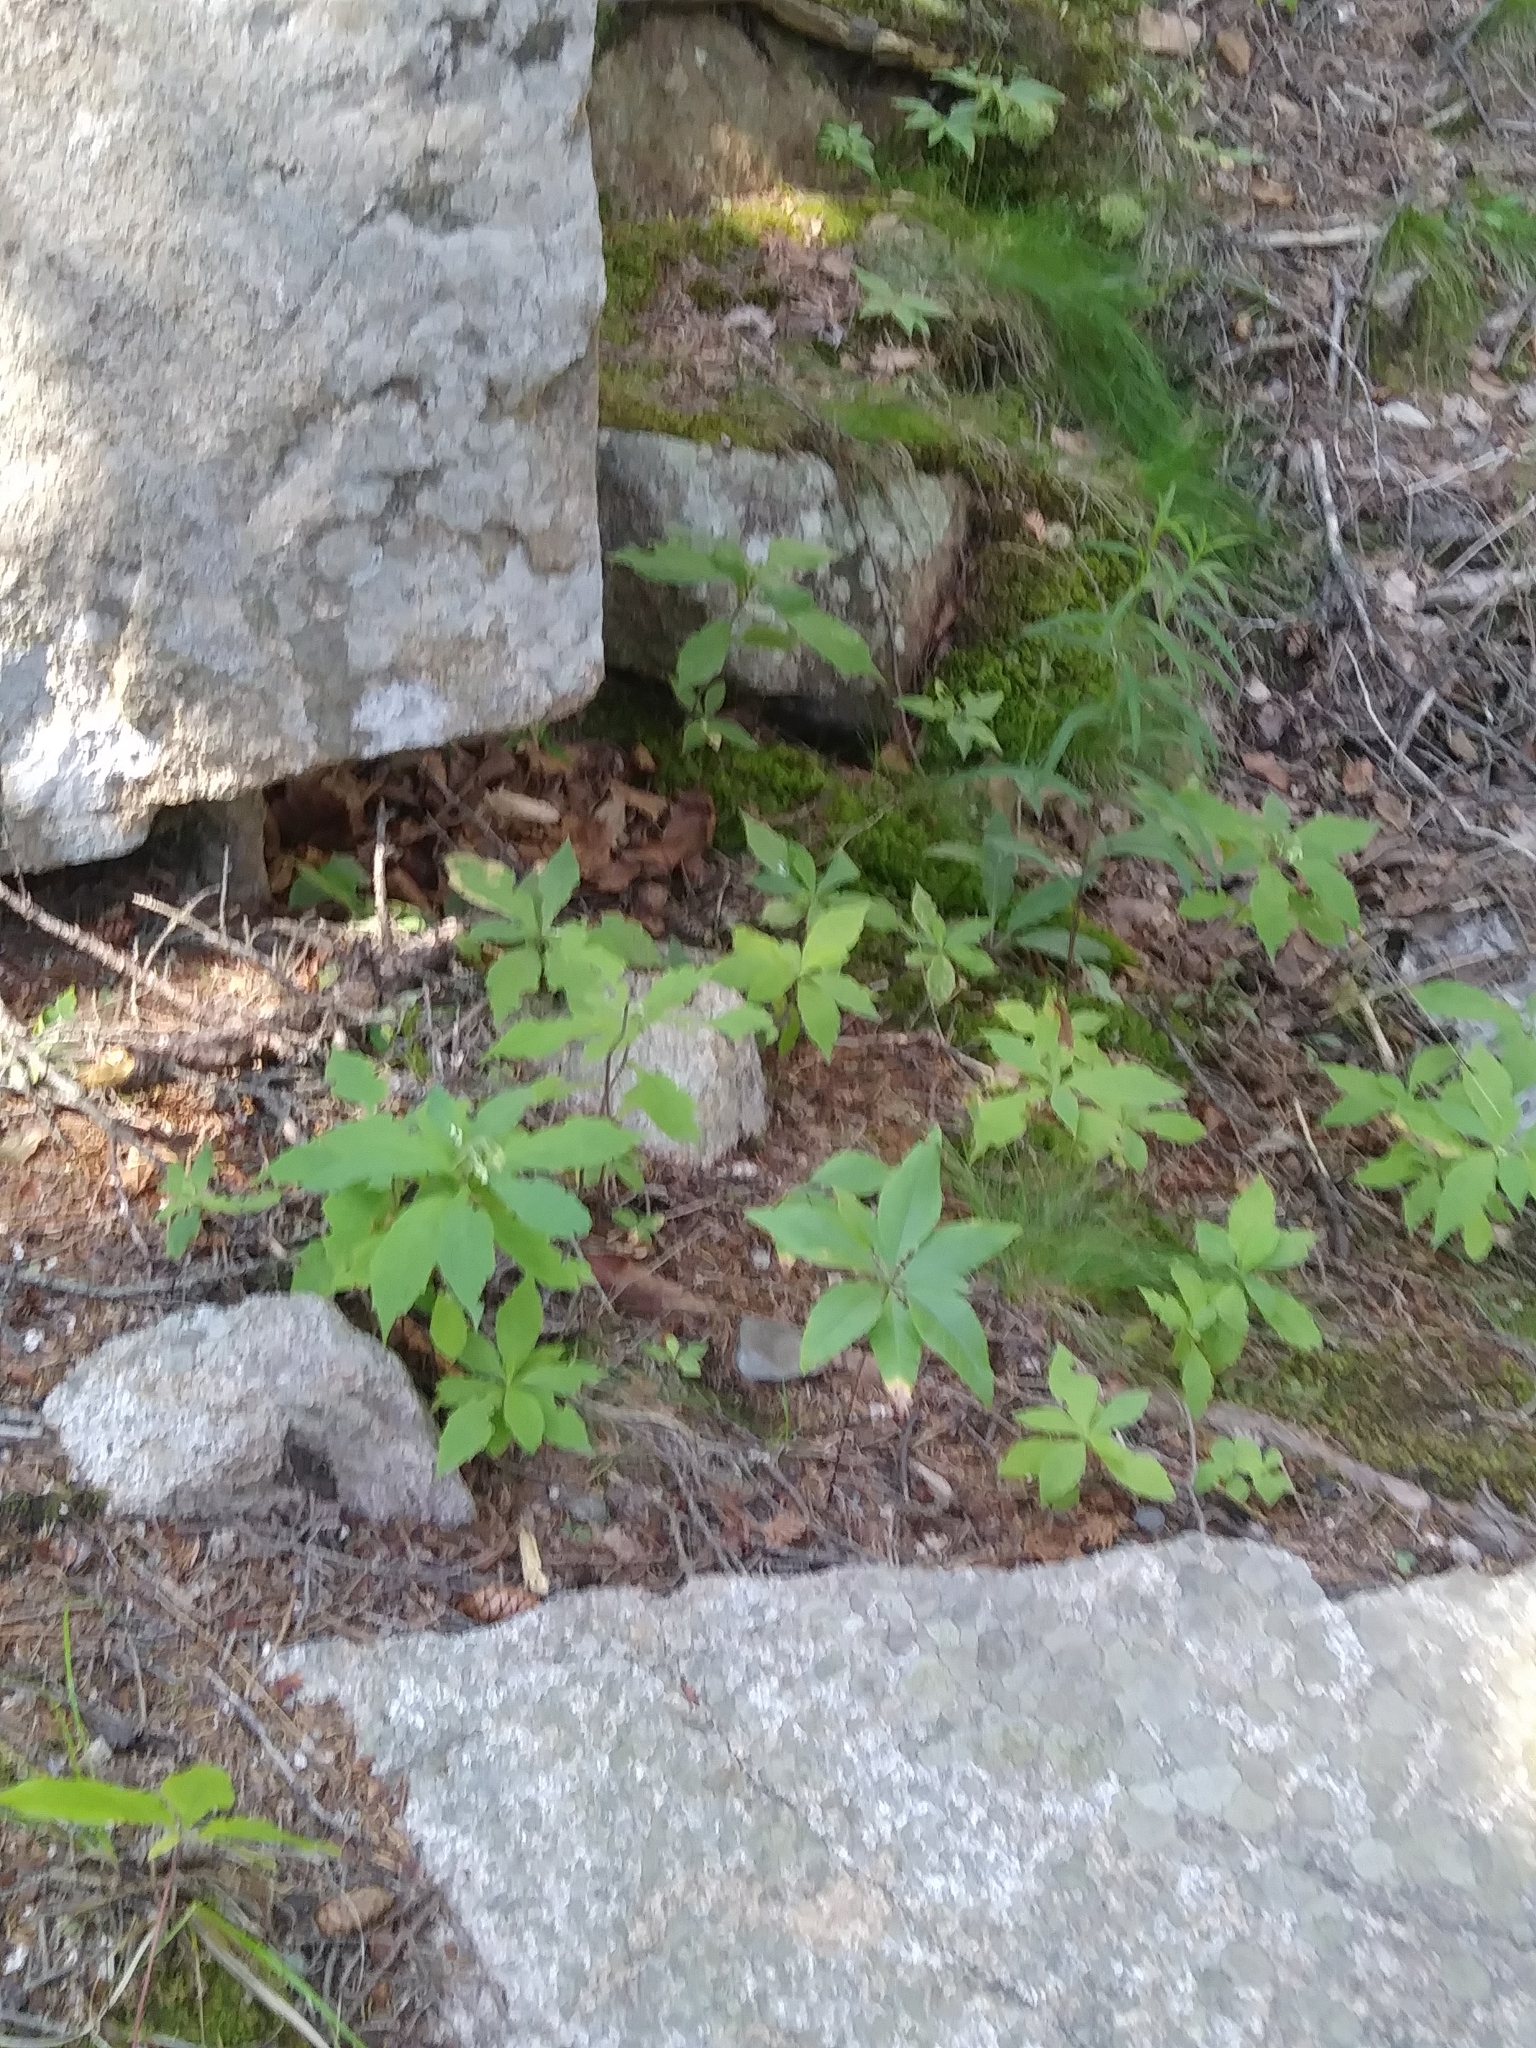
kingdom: Plantae
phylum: Tracheophyta
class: Magnoliopsida
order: Asterales
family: Asteraceae
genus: Oclemena
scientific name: Oclemena acuminata
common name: Mountain aster
